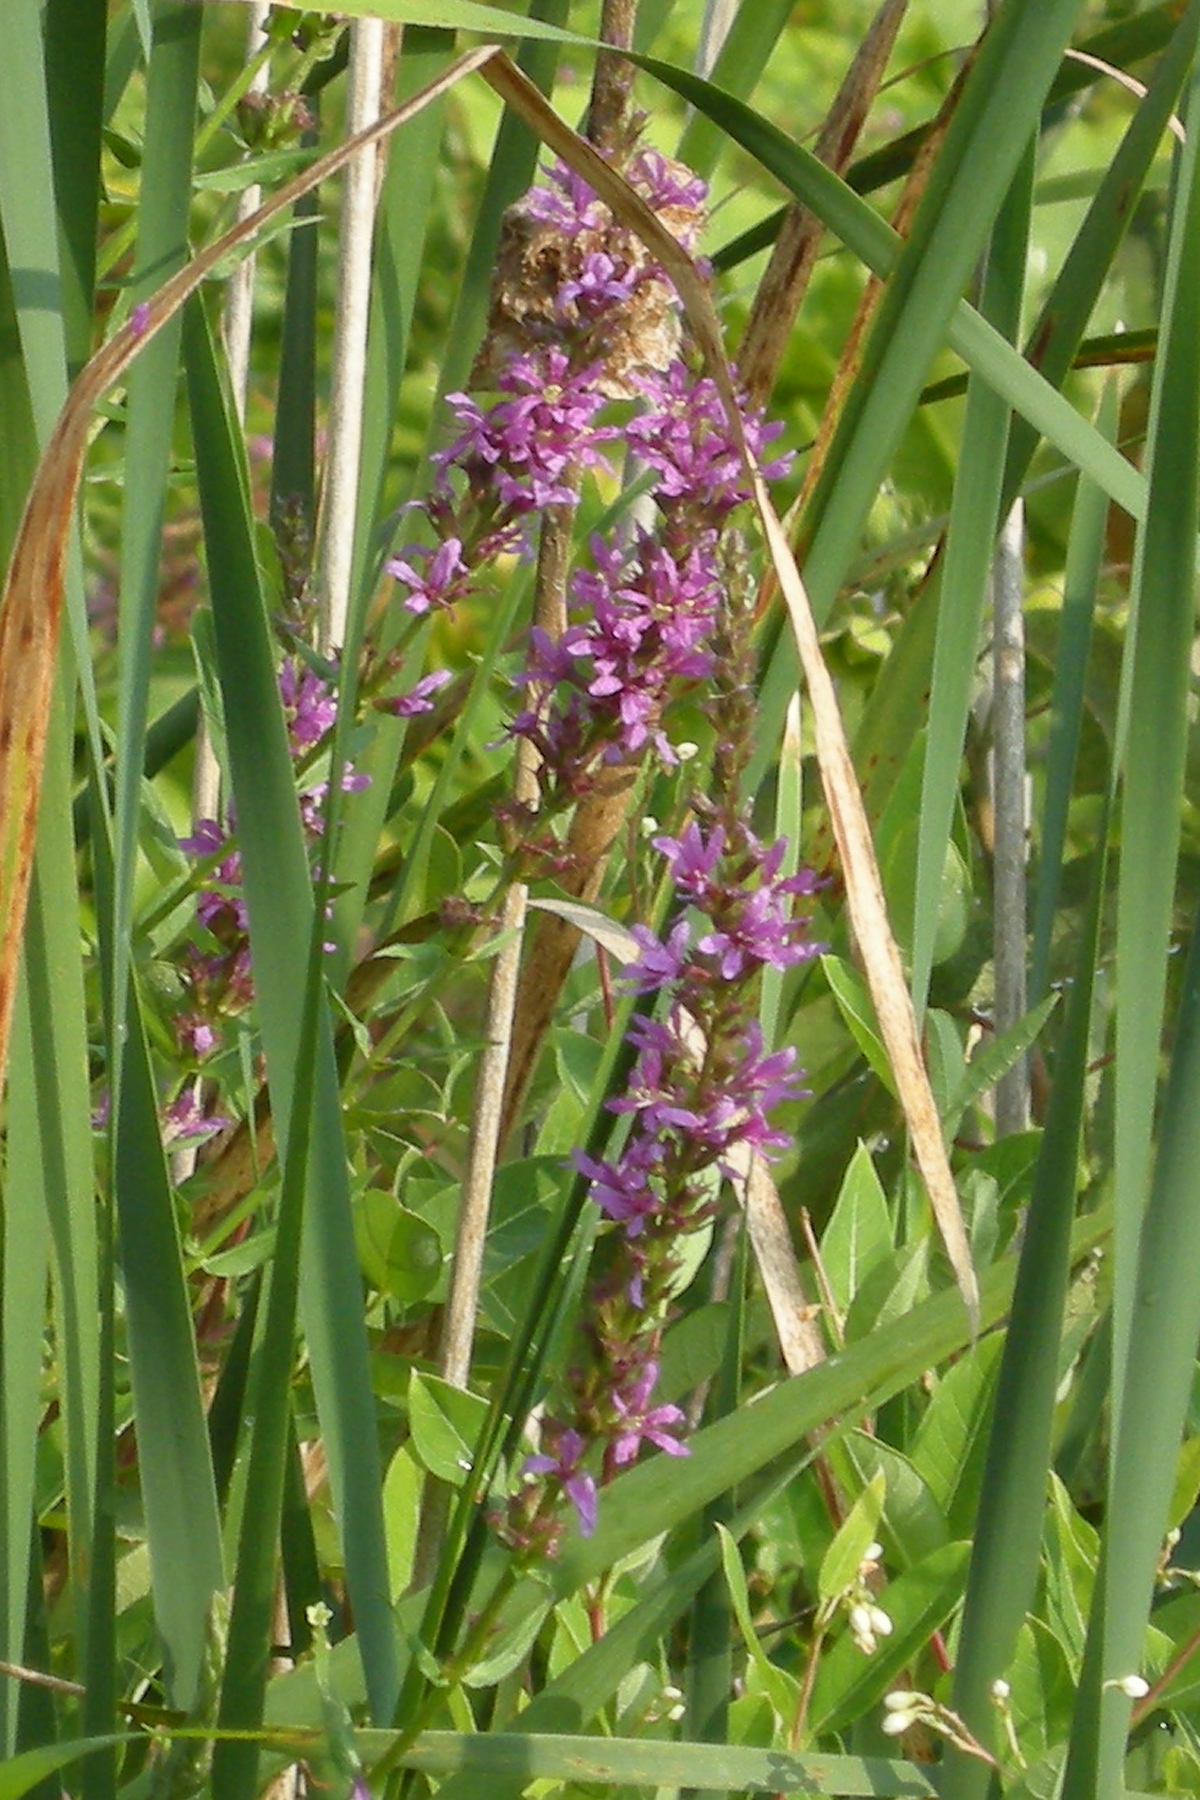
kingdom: Plantae
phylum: Tracheophyta
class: Magnoliopsida
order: Myrtales
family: Lythraceae
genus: Lythrum
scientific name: Lythrum salicaria
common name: Purple loosestrife
